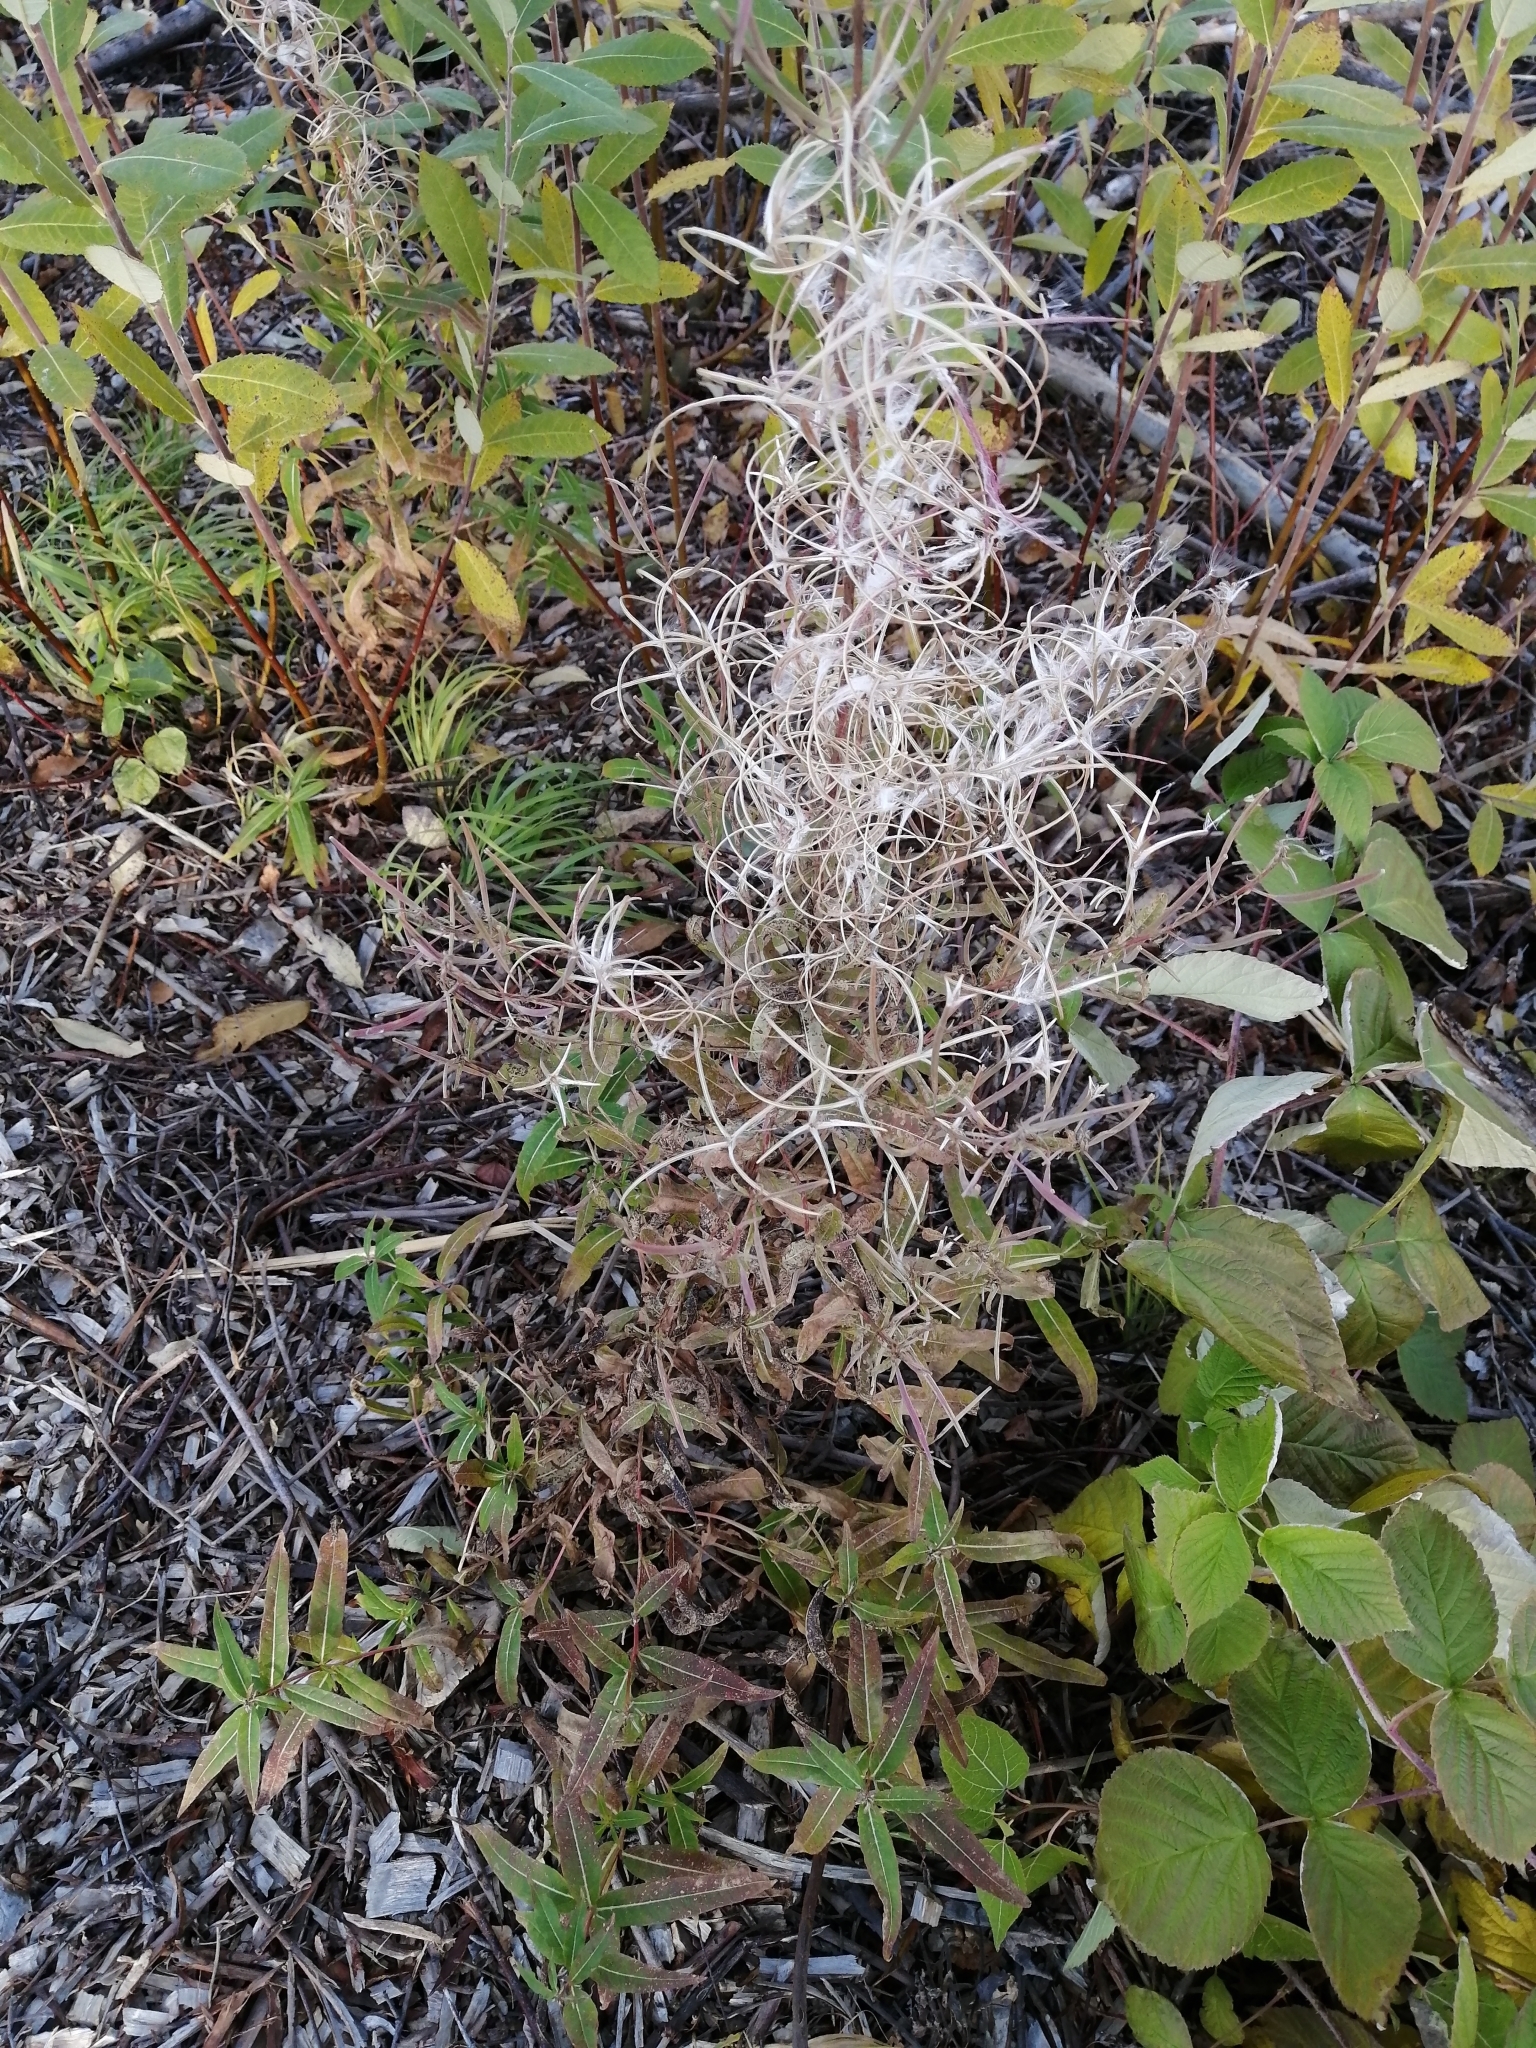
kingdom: Plantae
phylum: Tracheophyta
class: Magnoliopsida
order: Myrtales
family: Onagraceae
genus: Chamaenerion
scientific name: Chamaenerion angustifolium
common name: Fireweed
